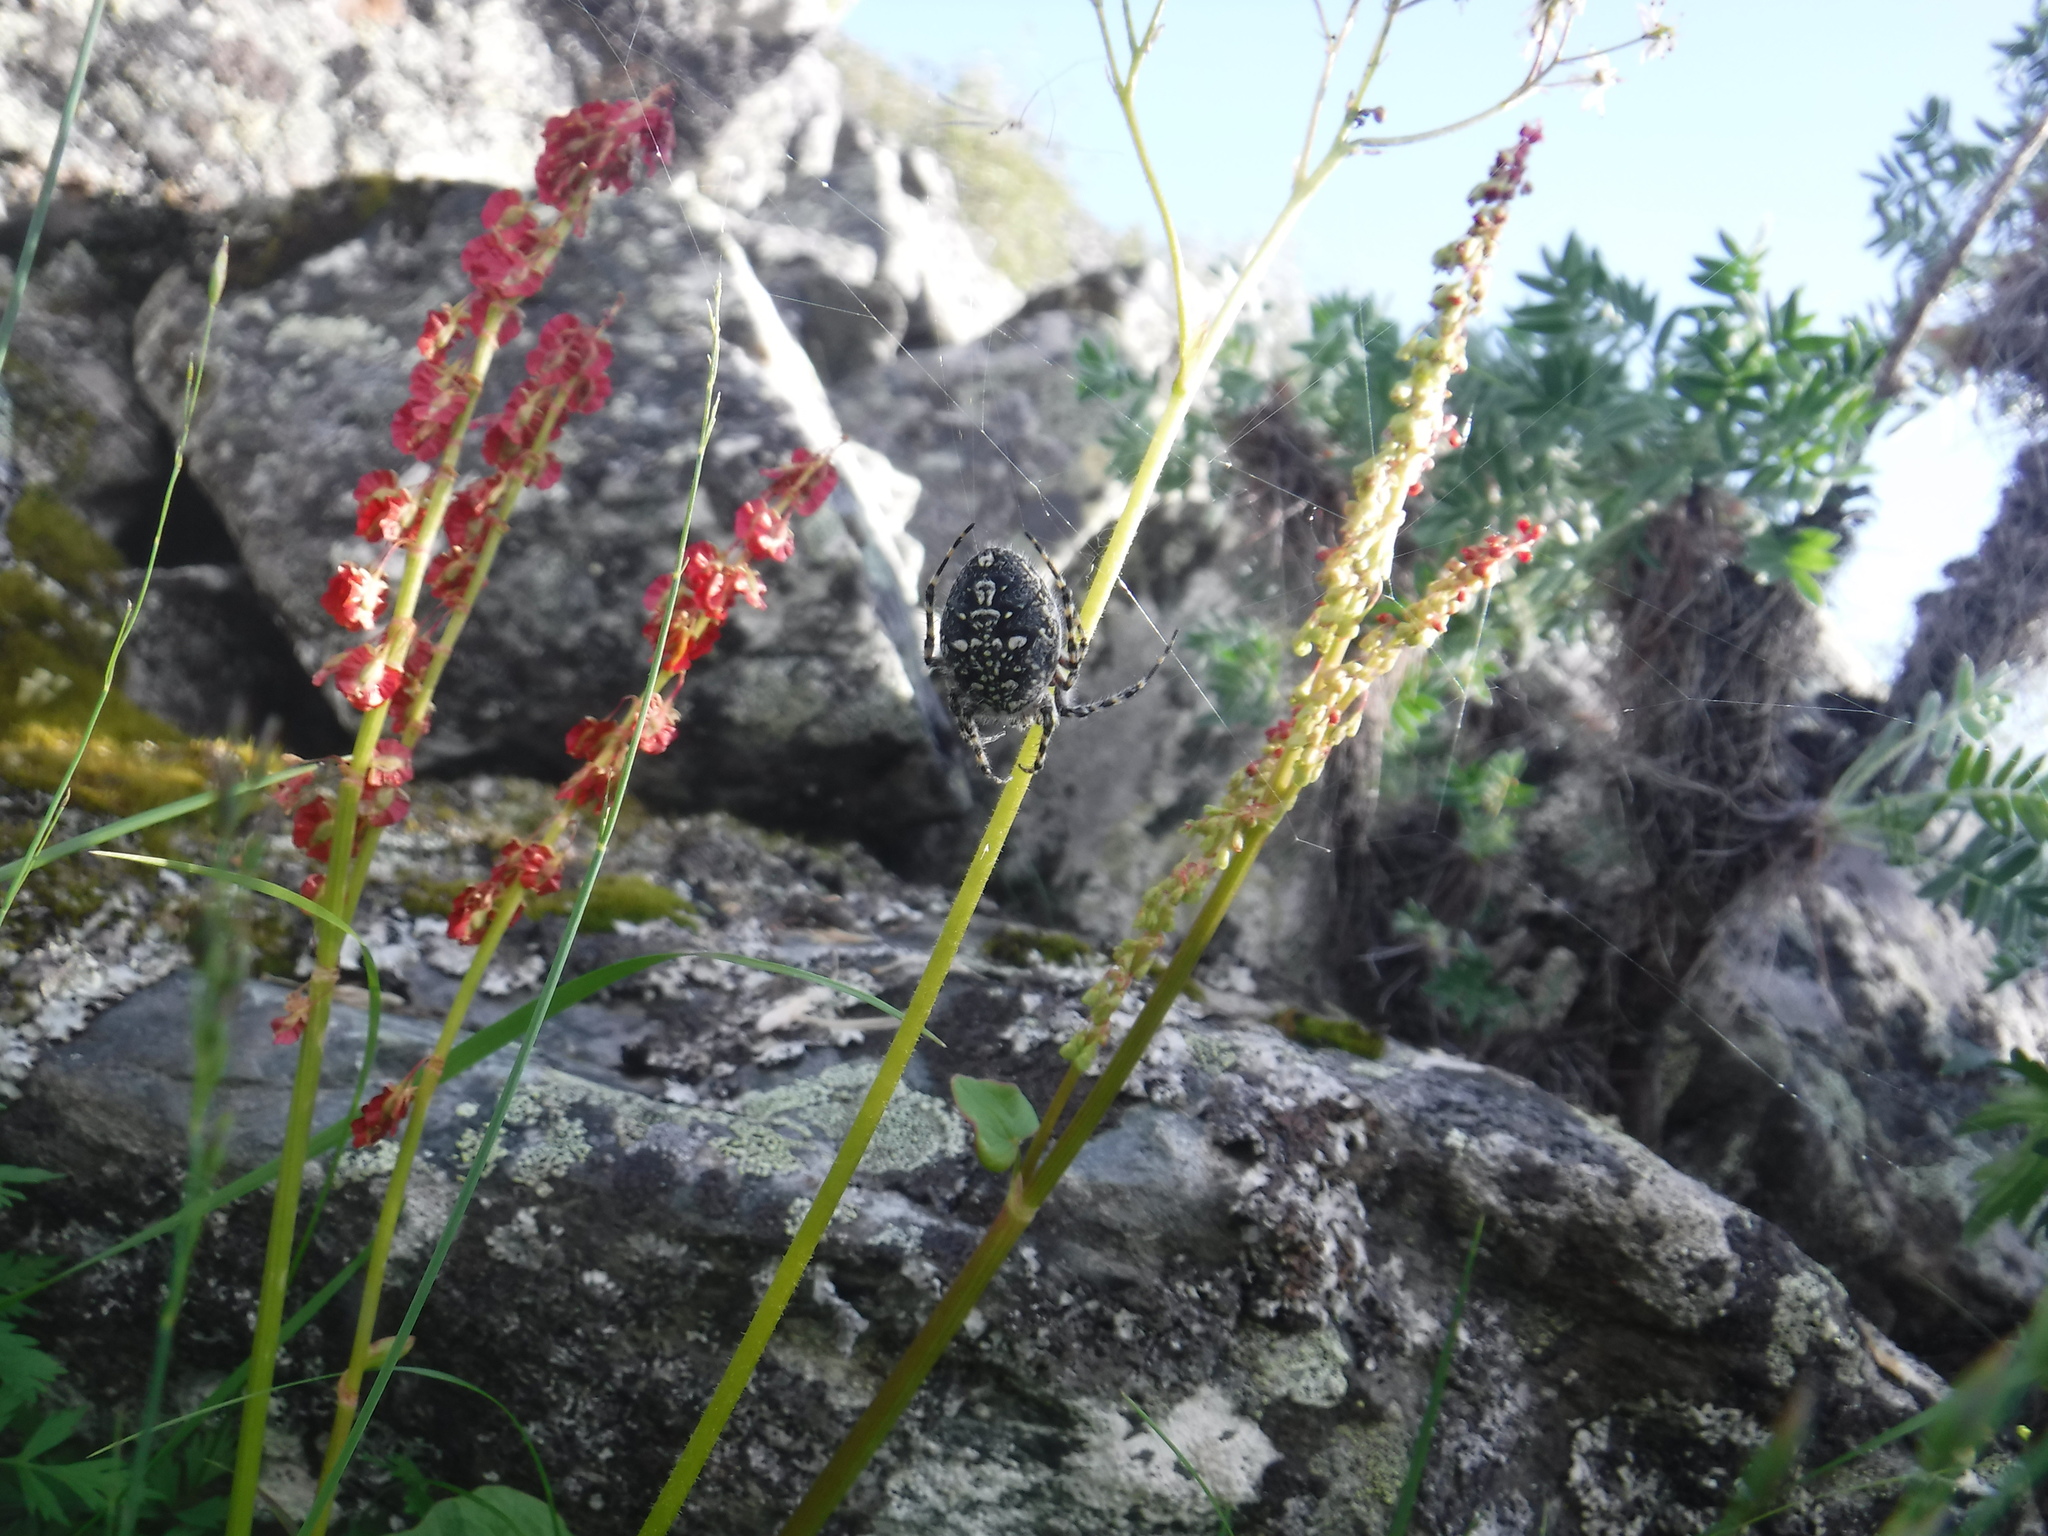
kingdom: Animalia
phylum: Arthropoda
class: Arachnida
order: Araneae
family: Araneidae
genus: Aculepeira
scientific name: Aculepeira carbonarioides
